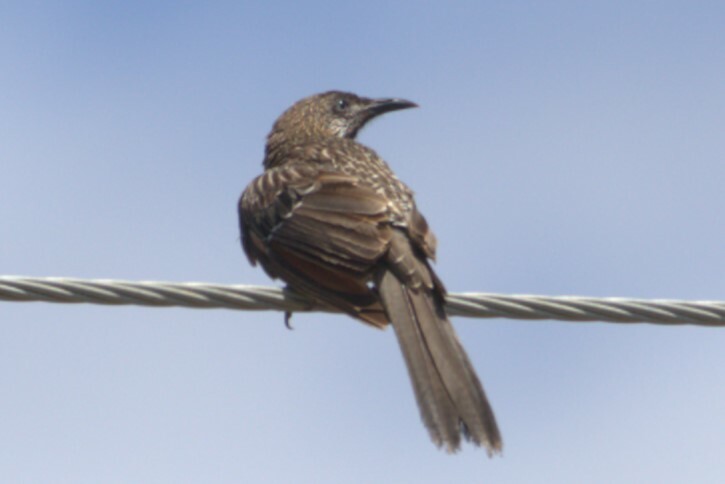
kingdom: Animalia
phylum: Chordata
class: Aves
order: Passeriformes
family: Meliphagidae
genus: Anthochaera
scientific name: Anthochaera chrysoptera
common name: Little wattlebird
